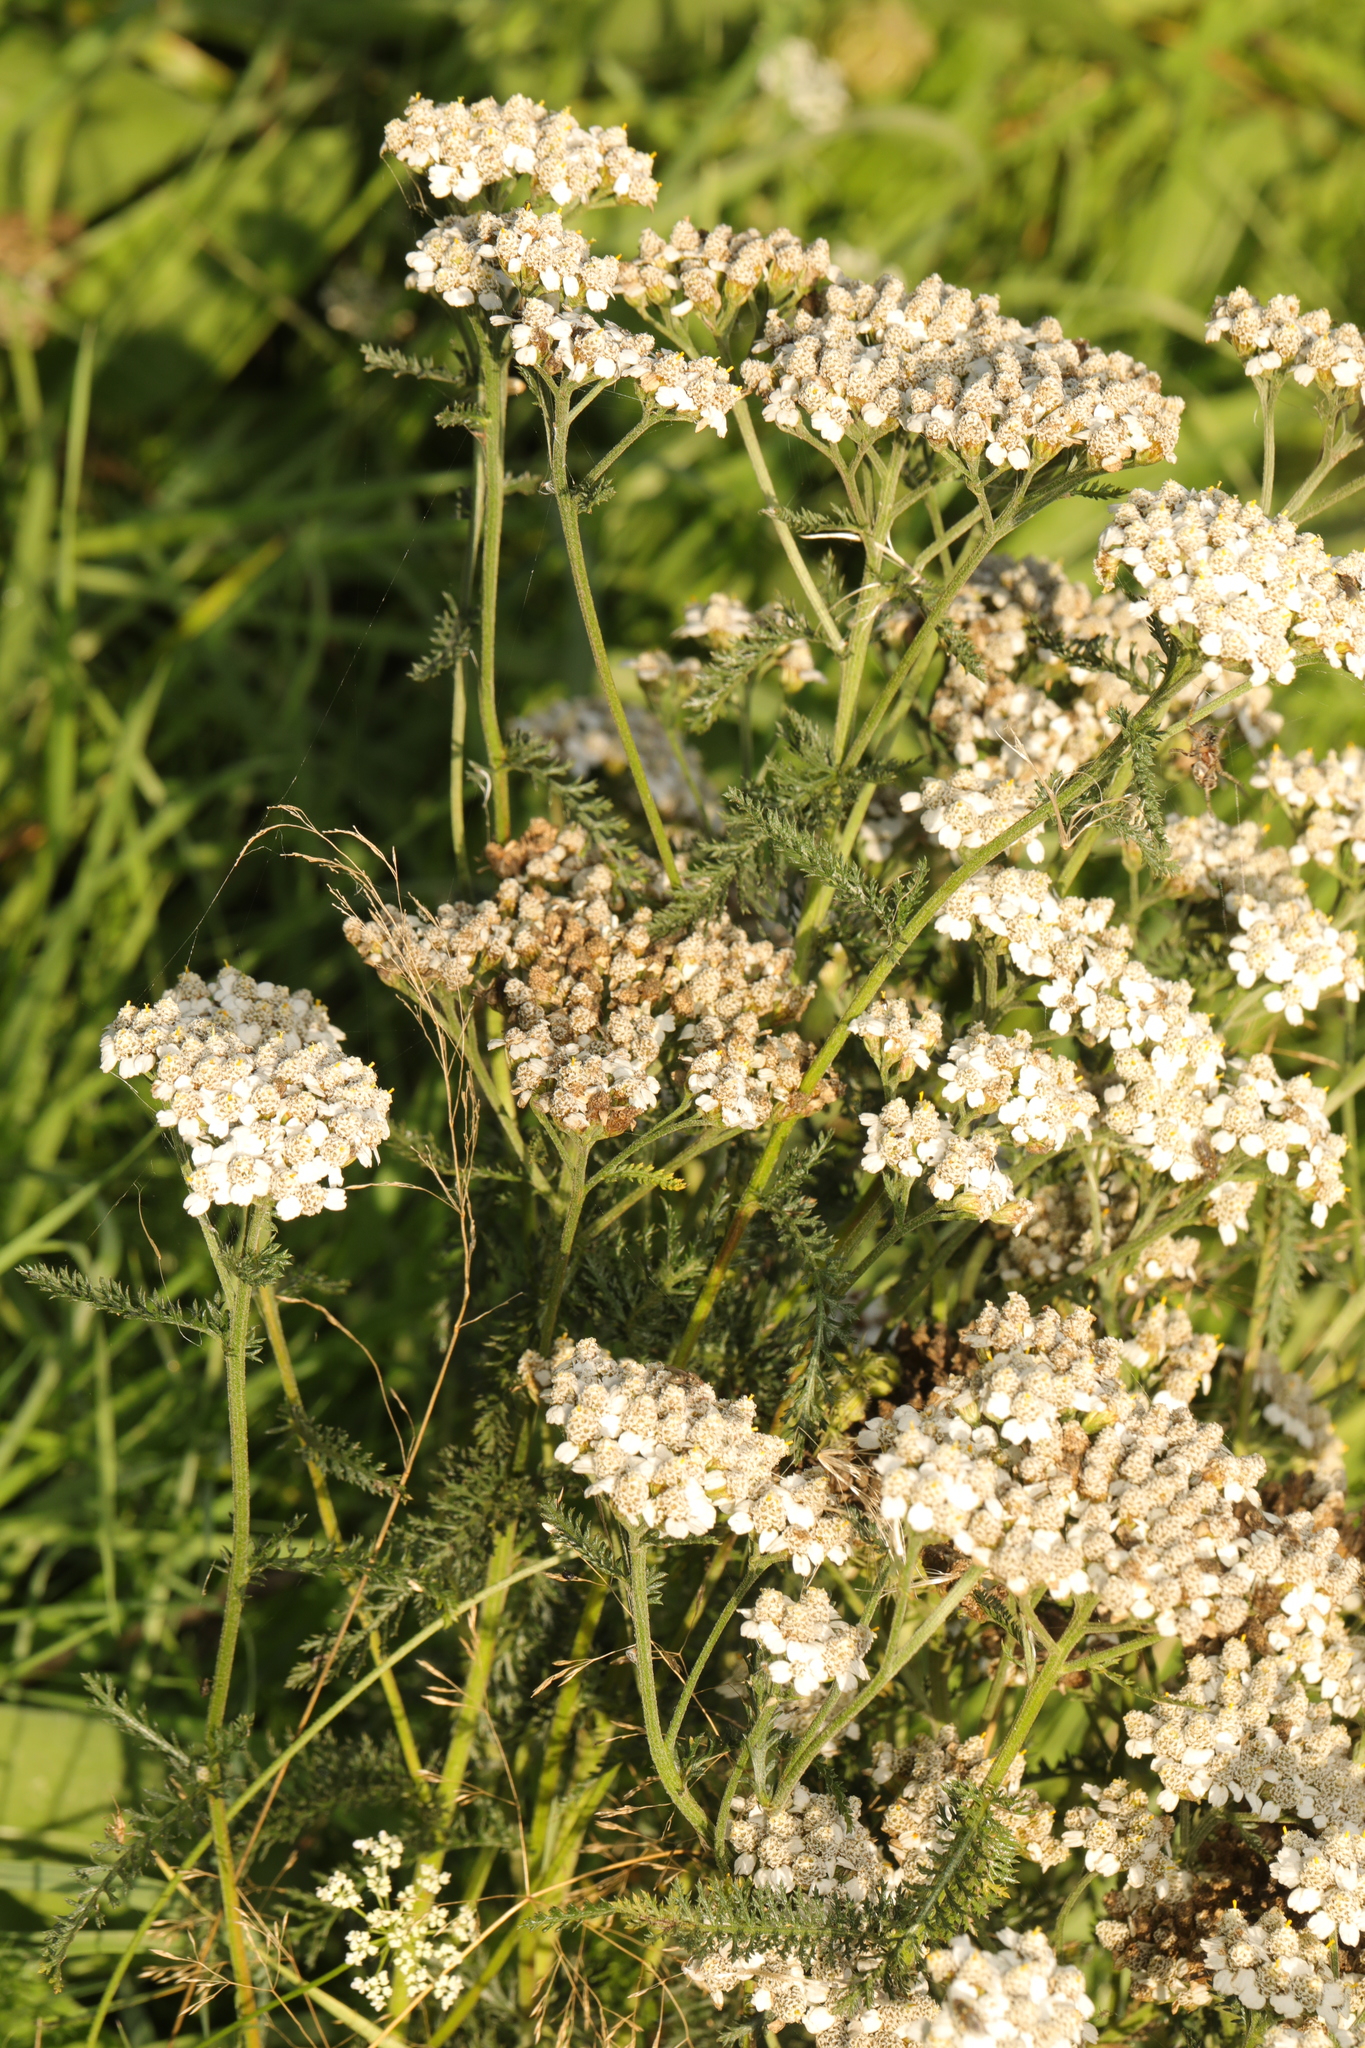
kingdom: Plantae
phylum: Tracheophyta
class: Magnoliopsida
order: Asterales
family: Asteraceae
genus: Achillea
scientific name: Achillea millefolium
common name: Yarrow
